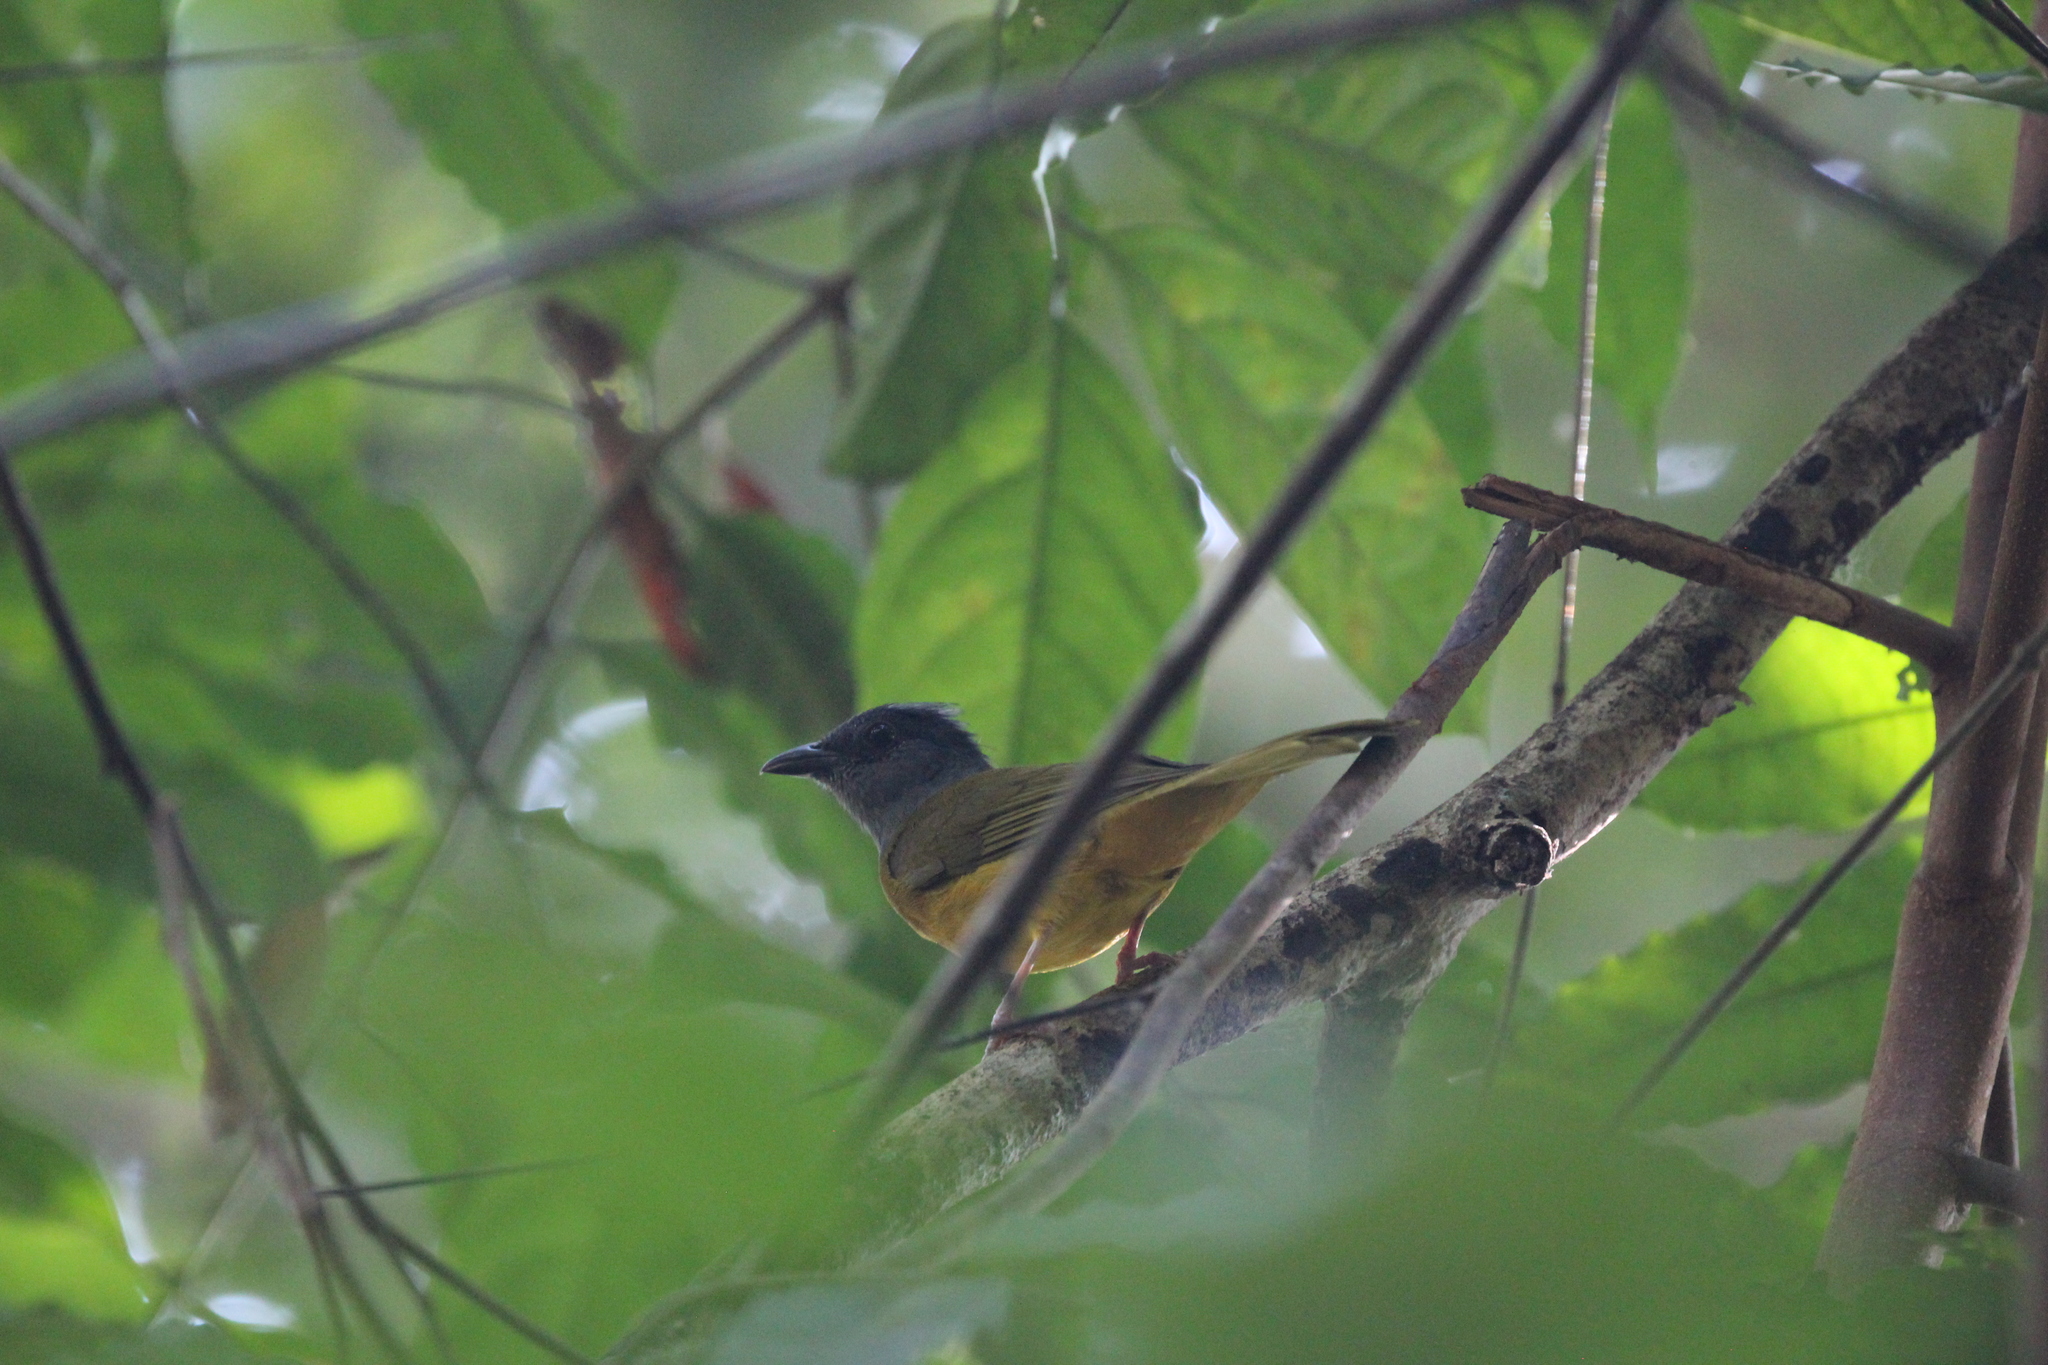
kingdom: Animalia
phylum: Chordata
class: Aves
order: Passeriformes
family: Thraupidae
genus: Eucometis
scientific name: Eucometis penicillata
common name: Grey-headed tanager
